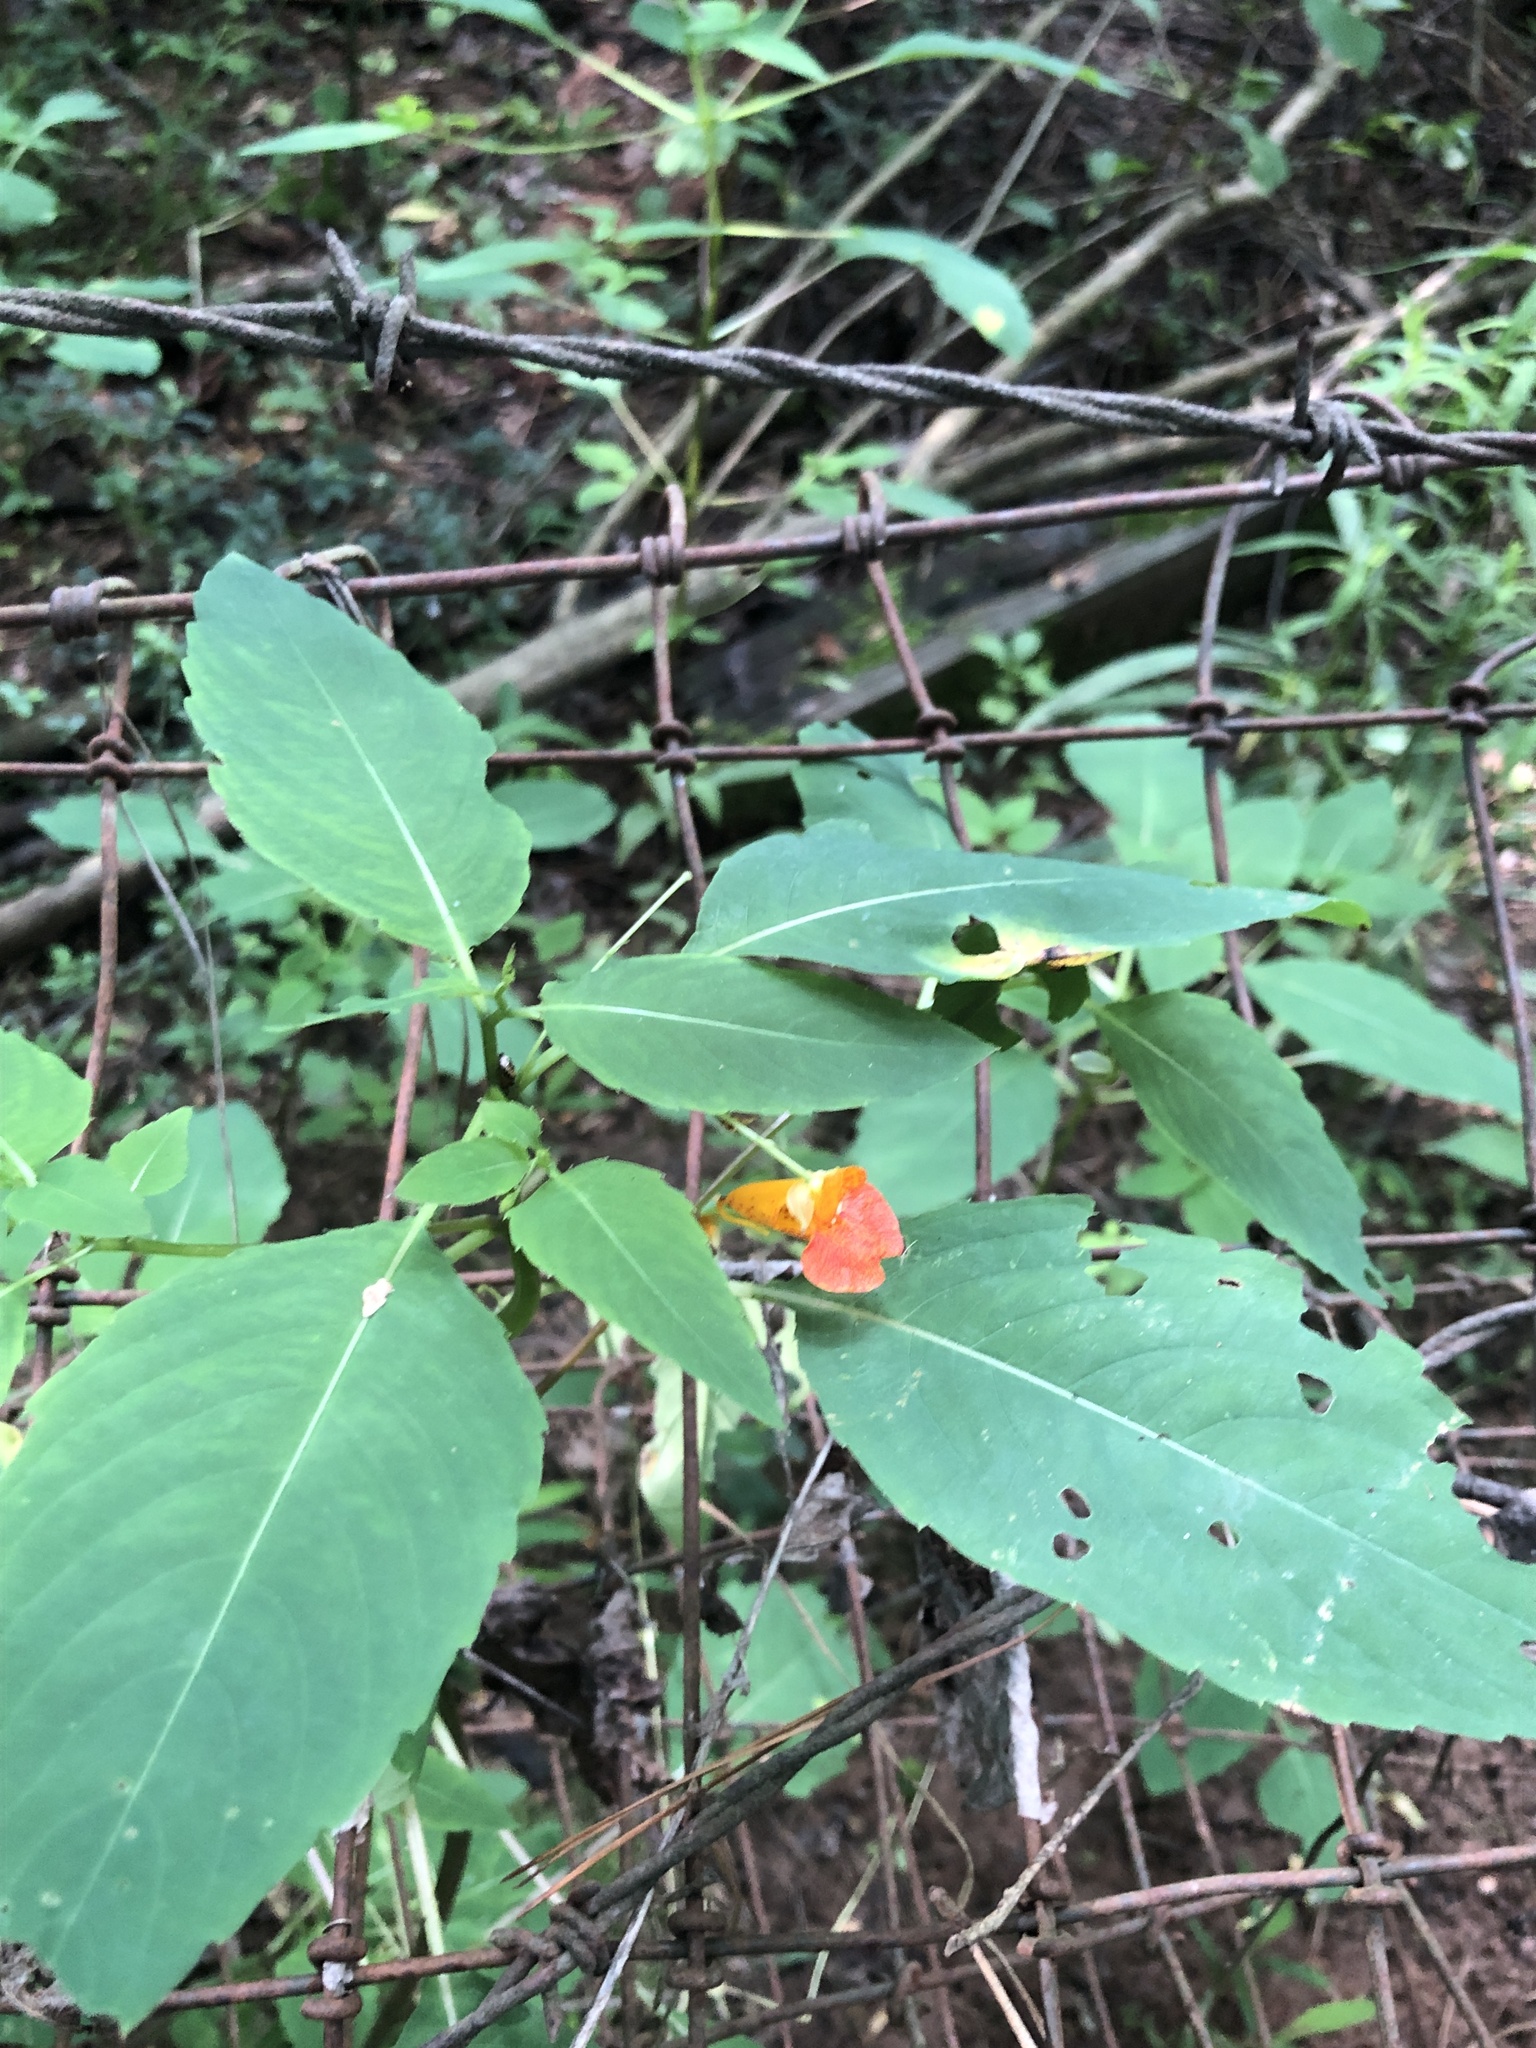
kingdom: Plantae
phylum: Tracheophyta
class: Magnoliopsida
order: Ericales
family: Balsaminaceae
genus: Impatiens
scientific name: Impatiens capensis
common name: Orange balsam
